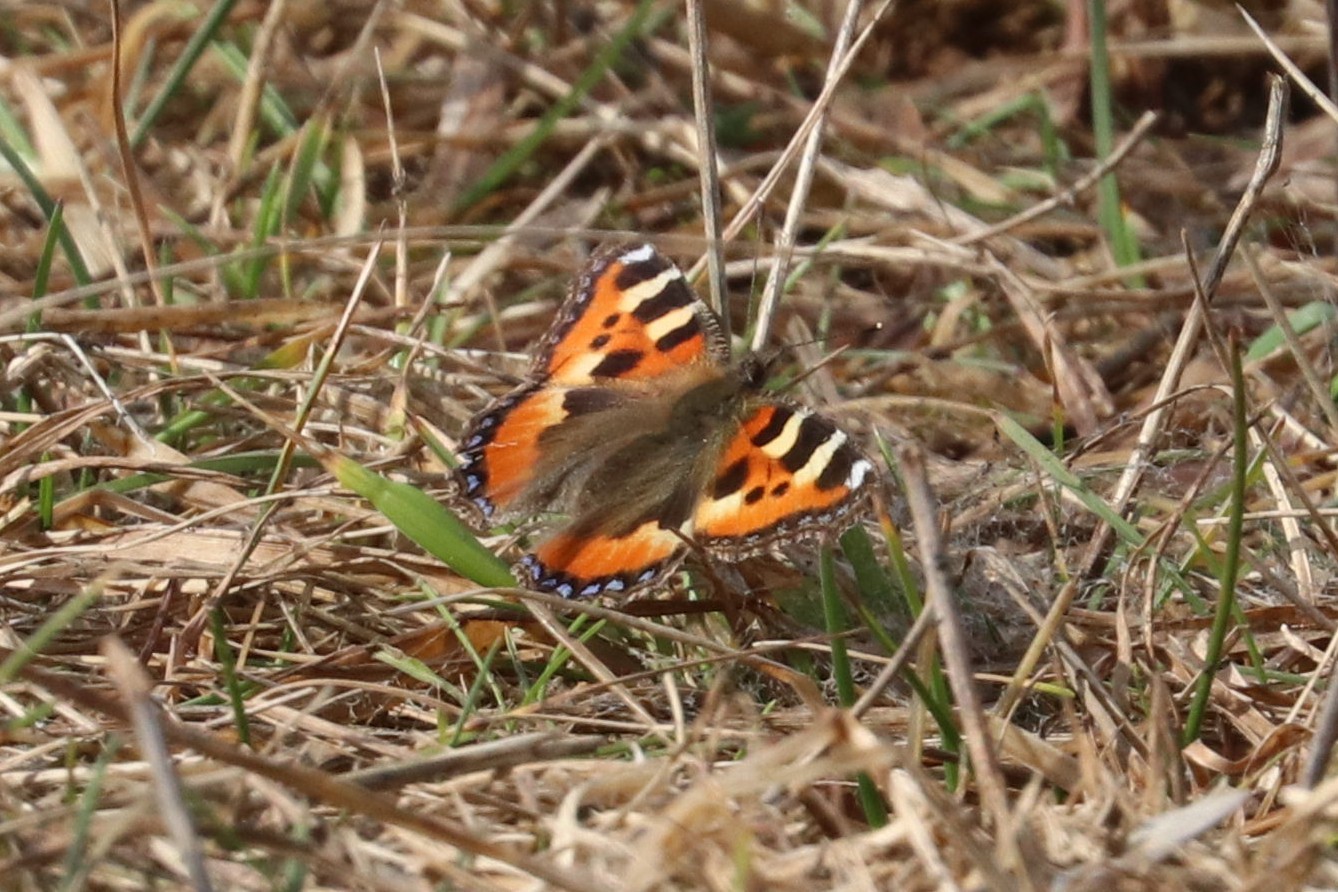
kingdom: Animalia
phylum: Arthropoda
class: Insecta
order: Lepidoptera
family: Nymphalidae
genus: Aglais
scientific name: Aglais urticae
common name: Small tortoiseshell
